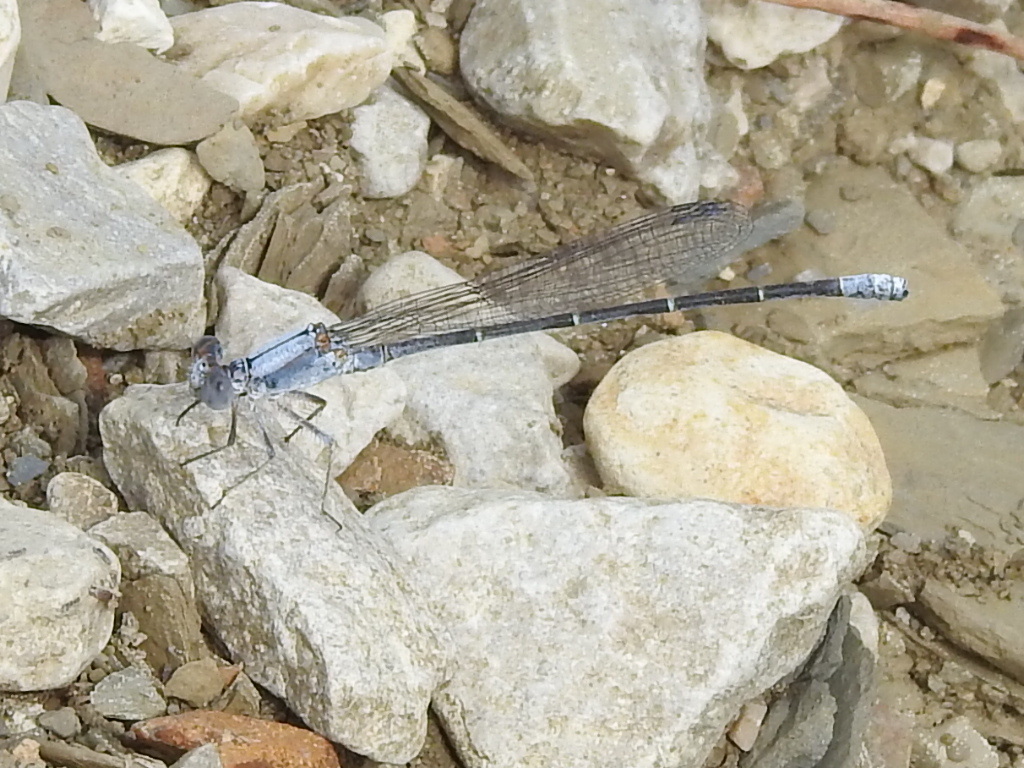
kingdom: Animalia
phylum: Arthropoda
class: Insecta
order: Odonata
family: Coenagrionidae
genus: Argia
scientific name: Argia moesta
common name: Powdered dancer
